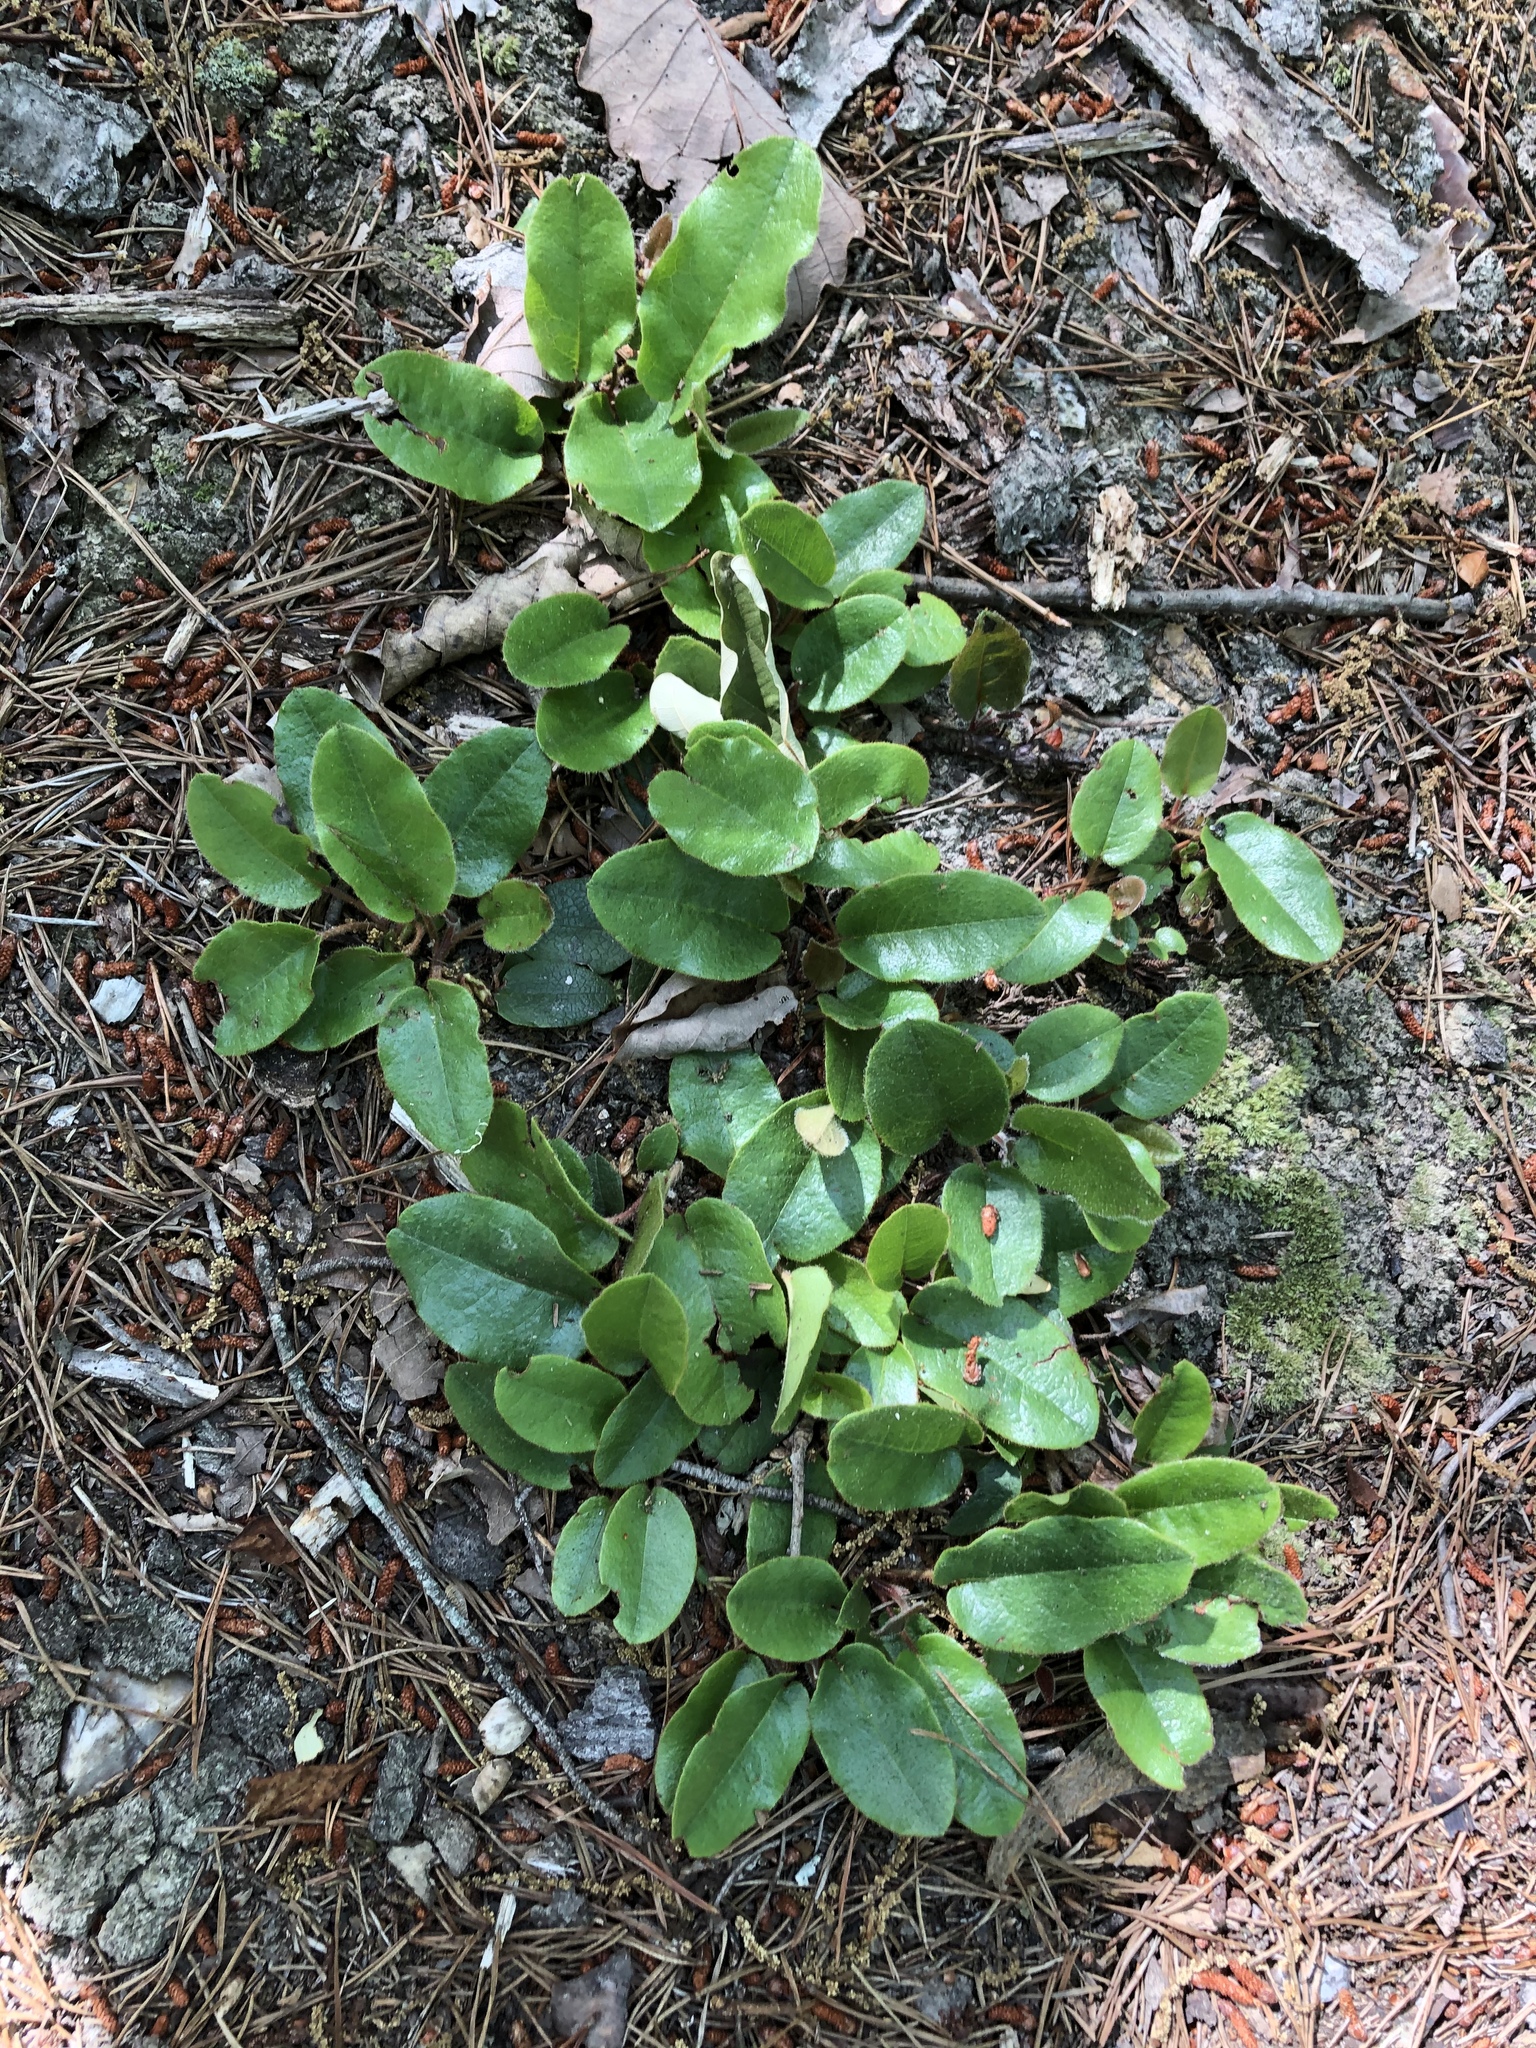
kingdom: Plantae
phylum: Tracheophyta
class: Magnoliopsida
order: Ericales
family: Ericaceae
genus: Epigaea
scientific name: Epigaea repens
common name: Gravelroot
